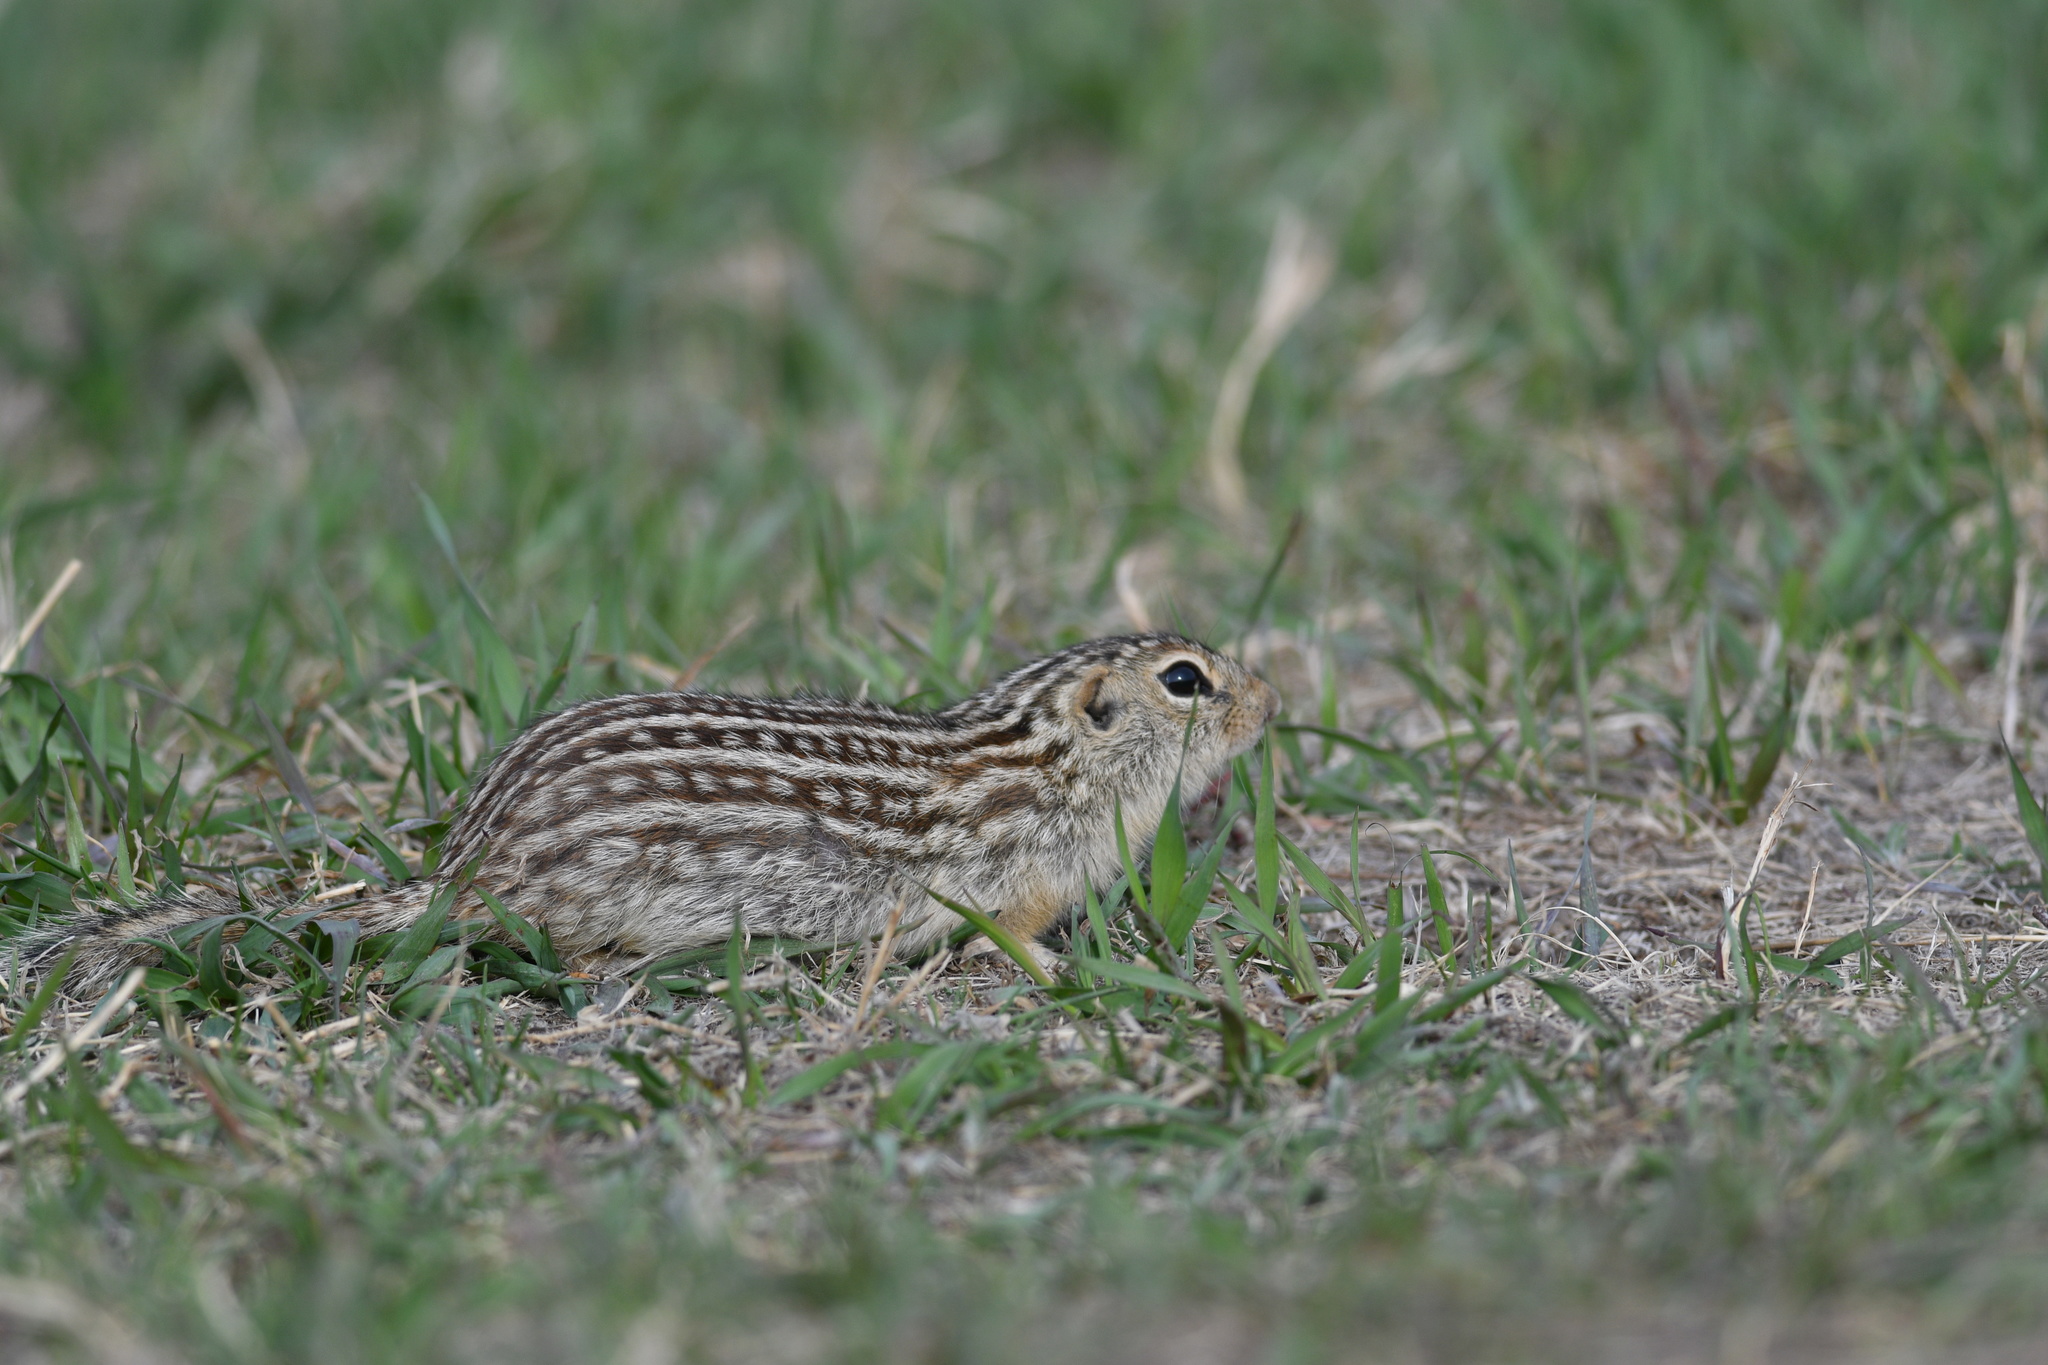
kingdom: Animalia
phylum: Chordata
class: Mammalia
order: Rodentia
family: Sciuridae
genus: Ictidomys
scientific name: Ictidomys tridecemlineatus
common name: Thirteen-lined ground squirrel
